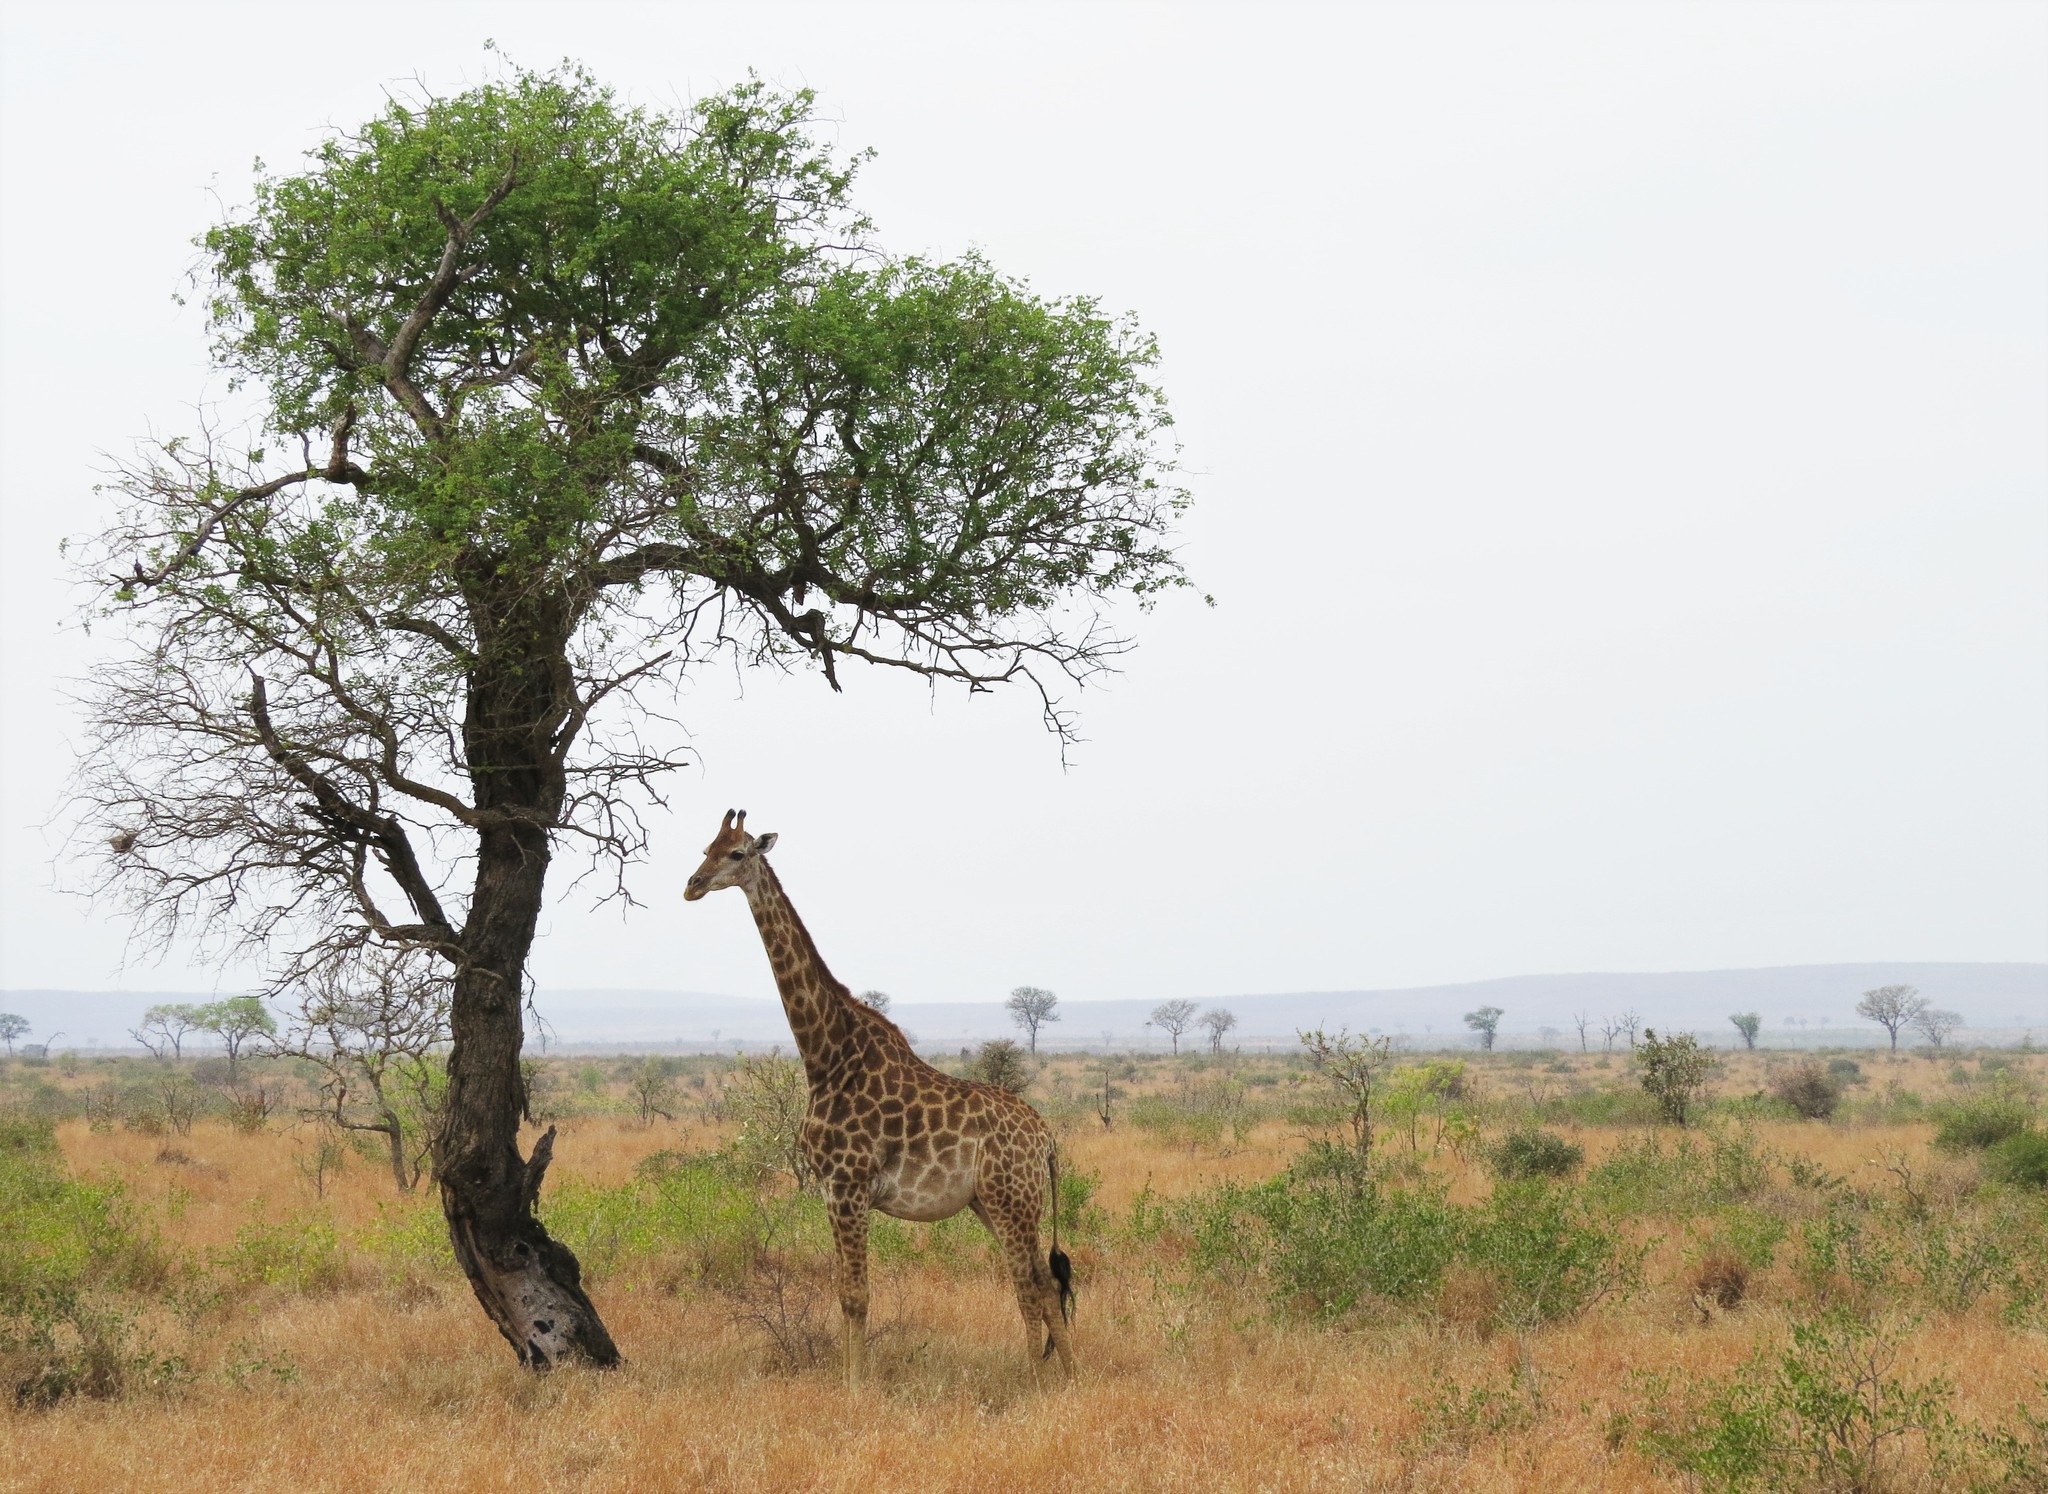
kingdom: Animalia
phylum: Chordata
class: Mammalia
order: Artiodactyla
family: Giraffidae
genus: Giraffa
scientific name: Giraffa giraffa
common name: Southern giraffe
